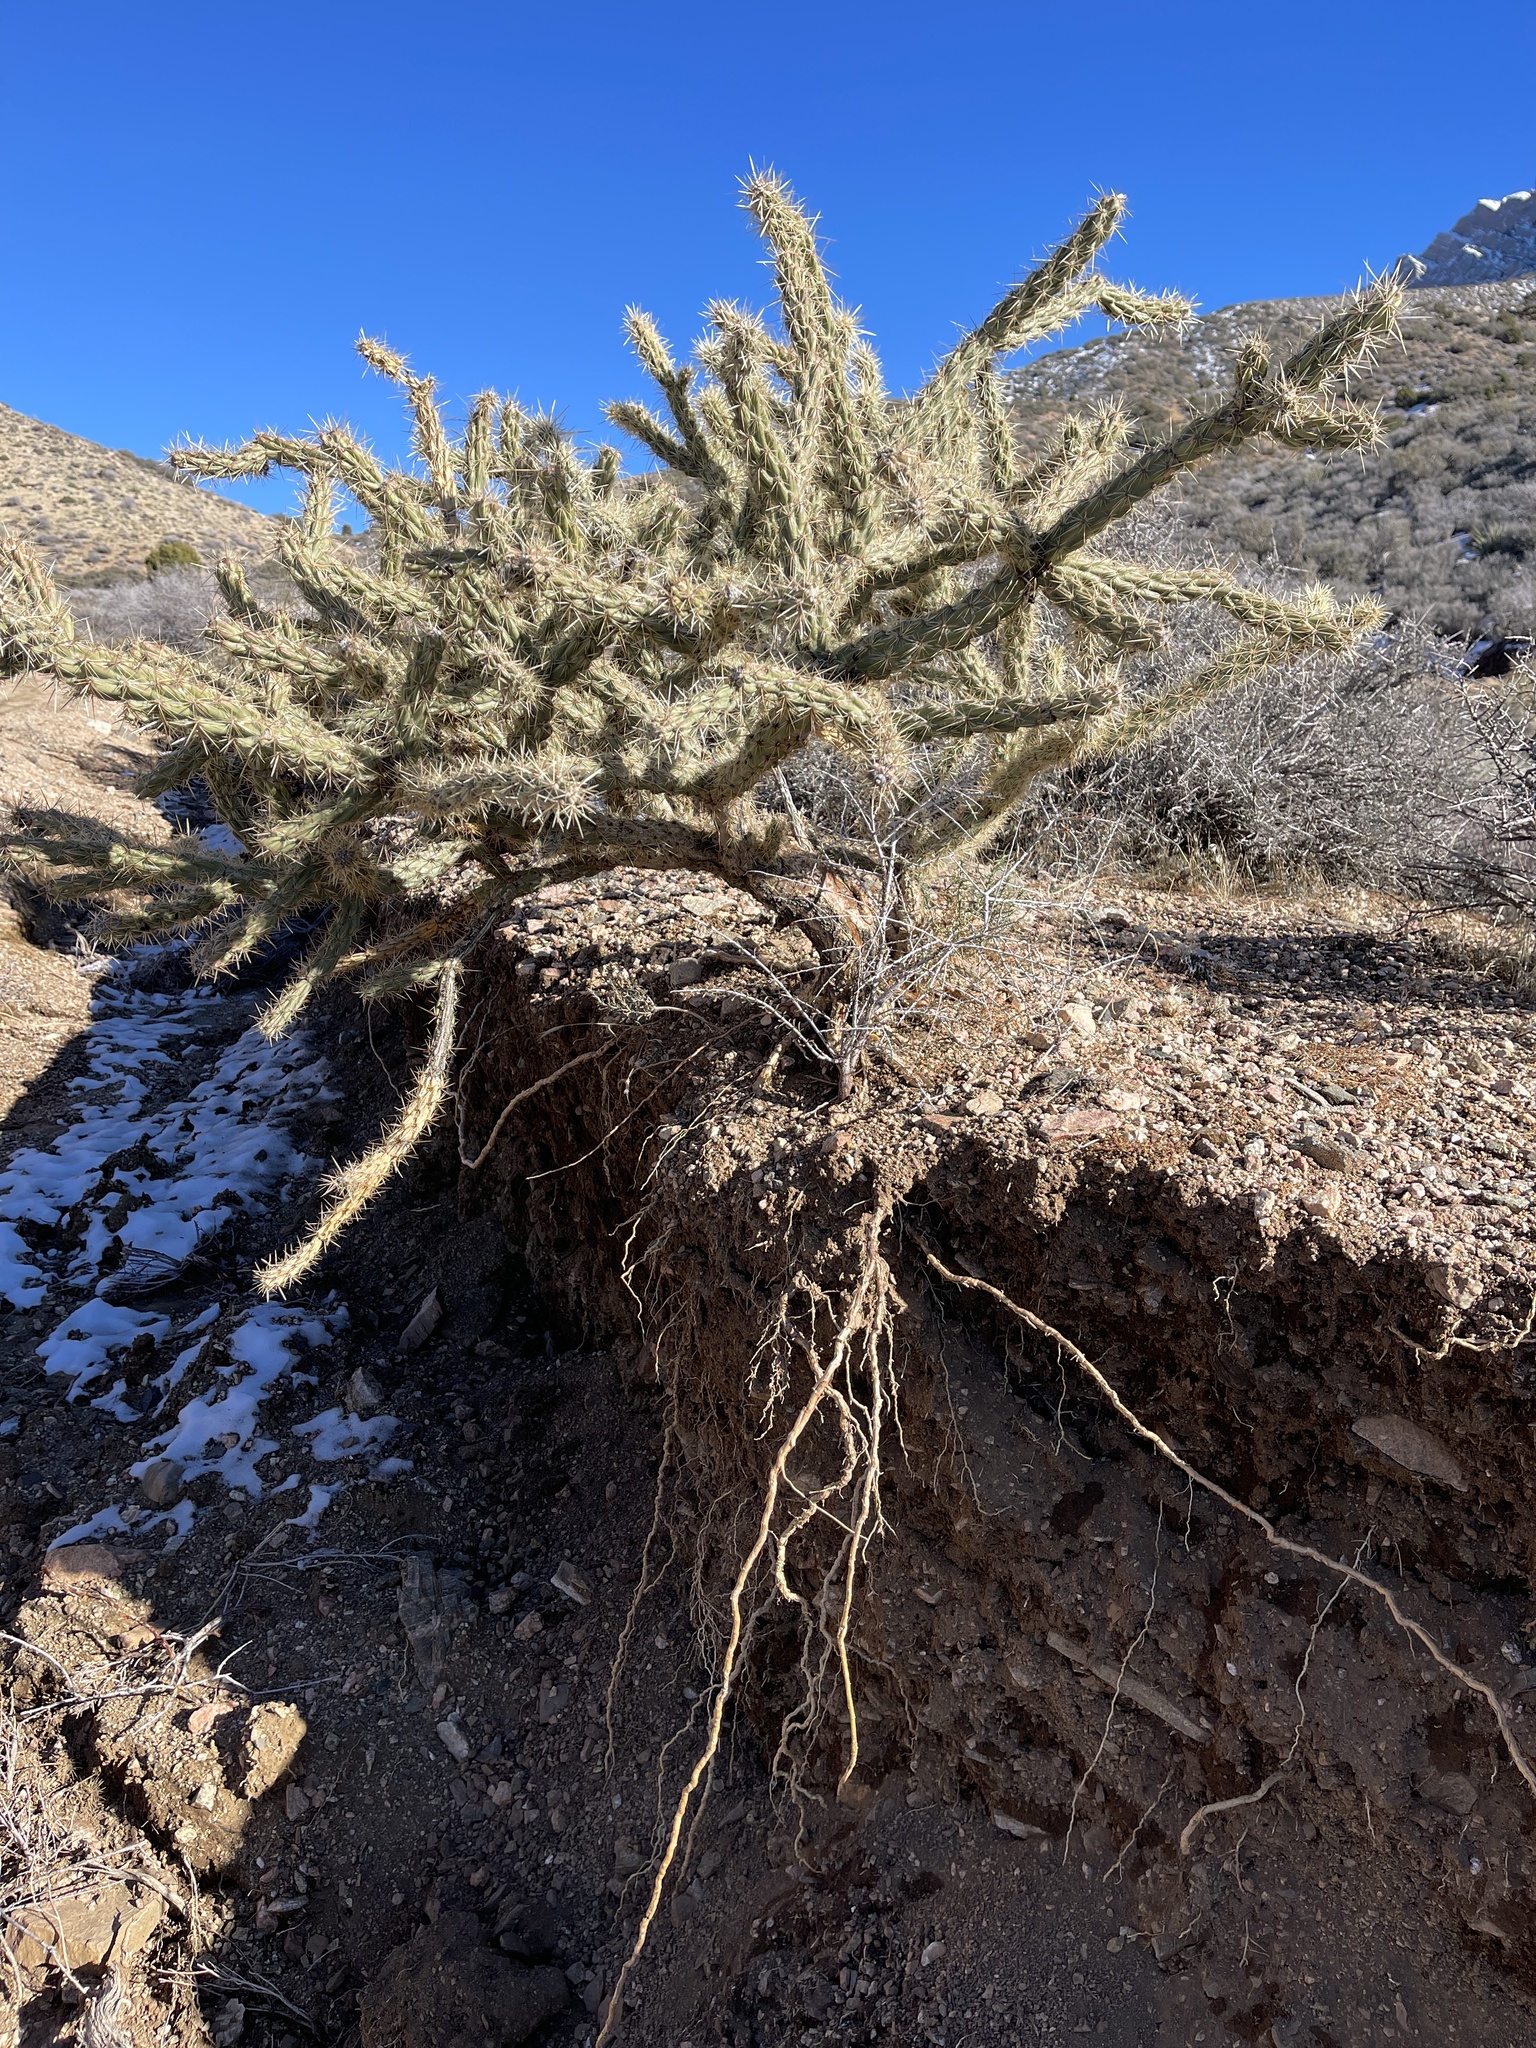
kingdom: Plantae
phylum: Tracheophyta
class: Magnoliopsida
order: Caryophyllales
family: Cactaceae
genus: Cylindropuntia
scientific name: Cylindropuntia acanthocarpa
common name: Buckhorn cholla
